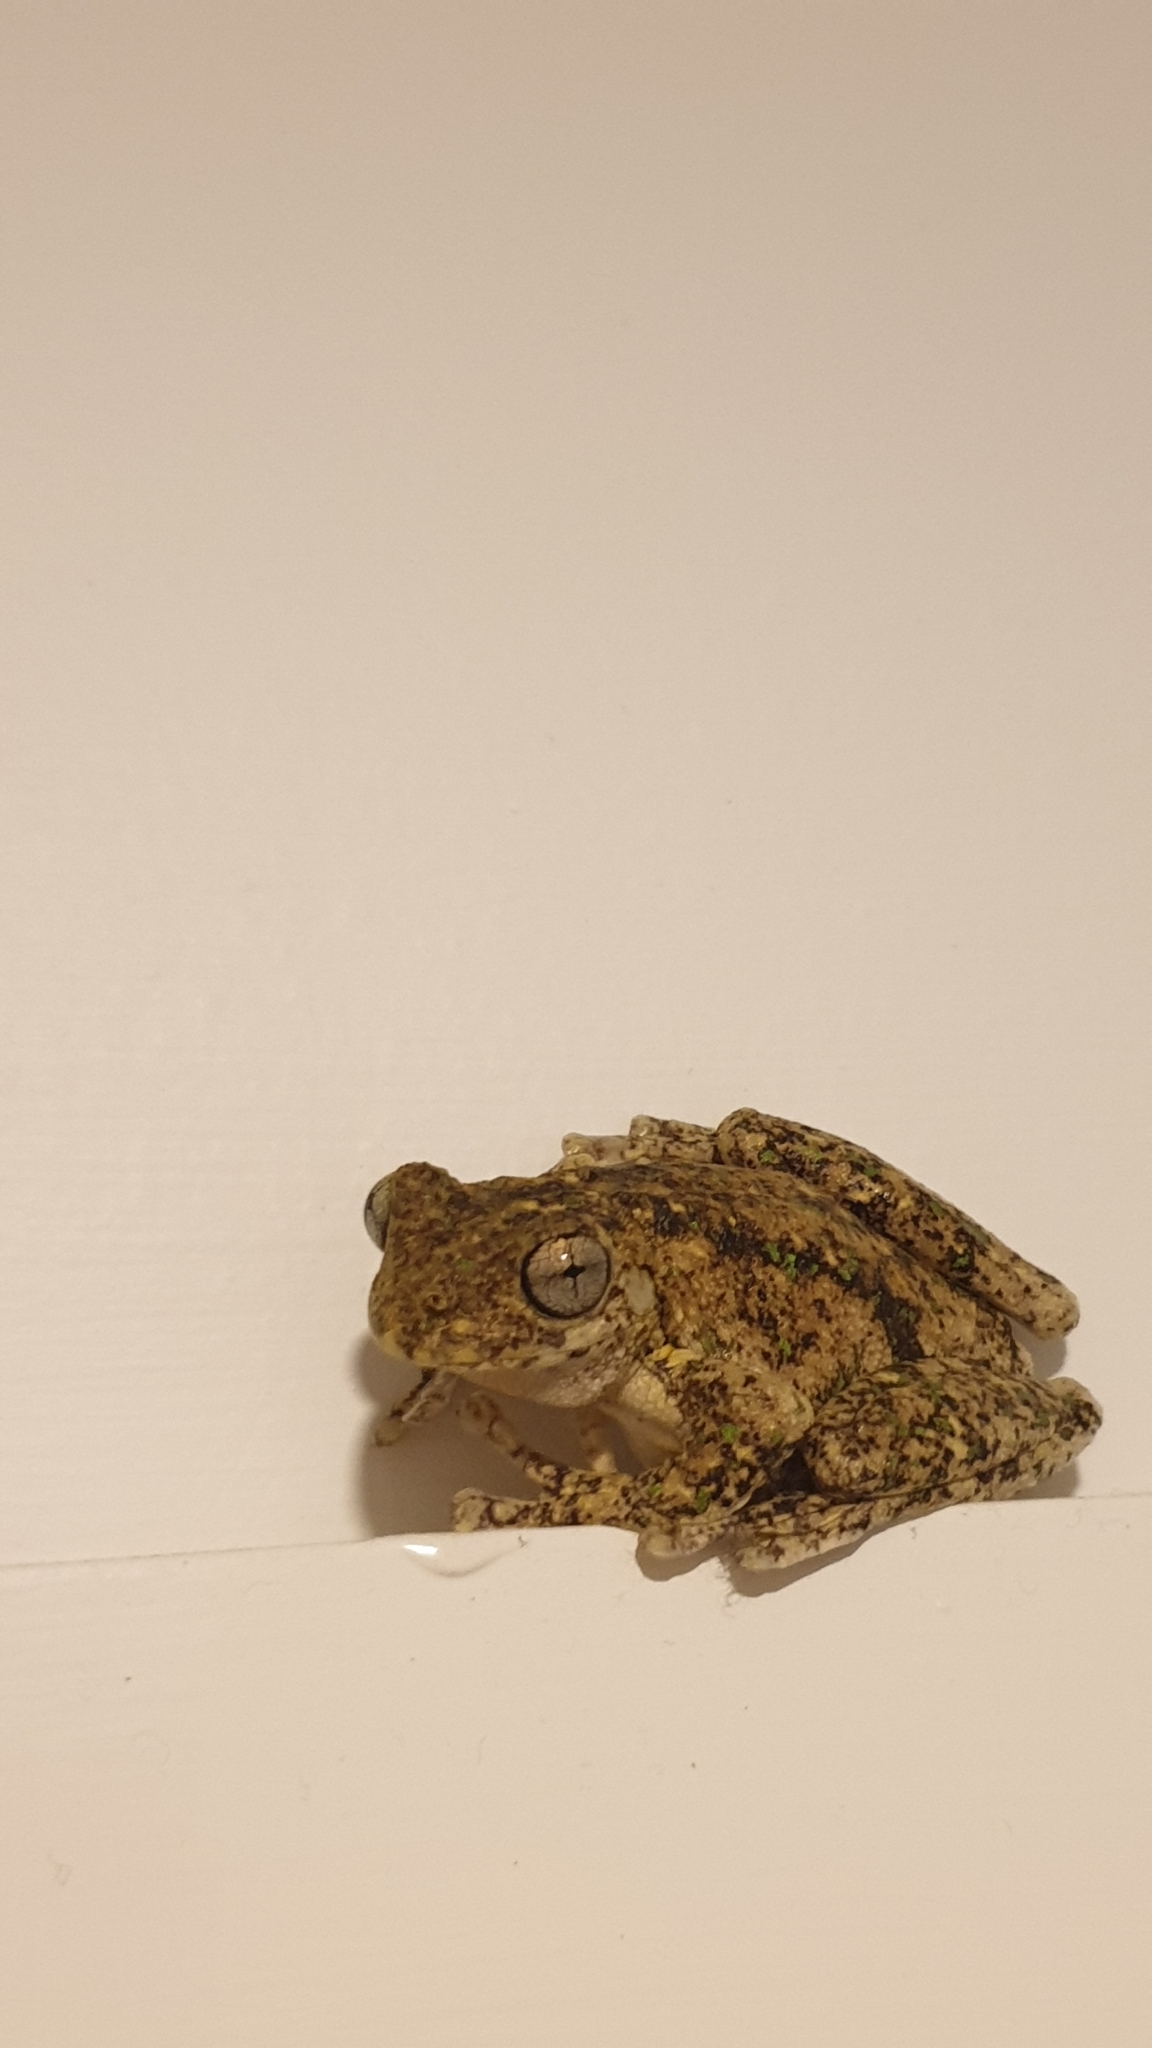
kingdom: Animalia
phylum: Chordata
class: Amphibia
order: Anura
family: Pelodryadidae
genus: Litoria
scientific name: Litoria peronii
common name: Emerald spotted treefrog
